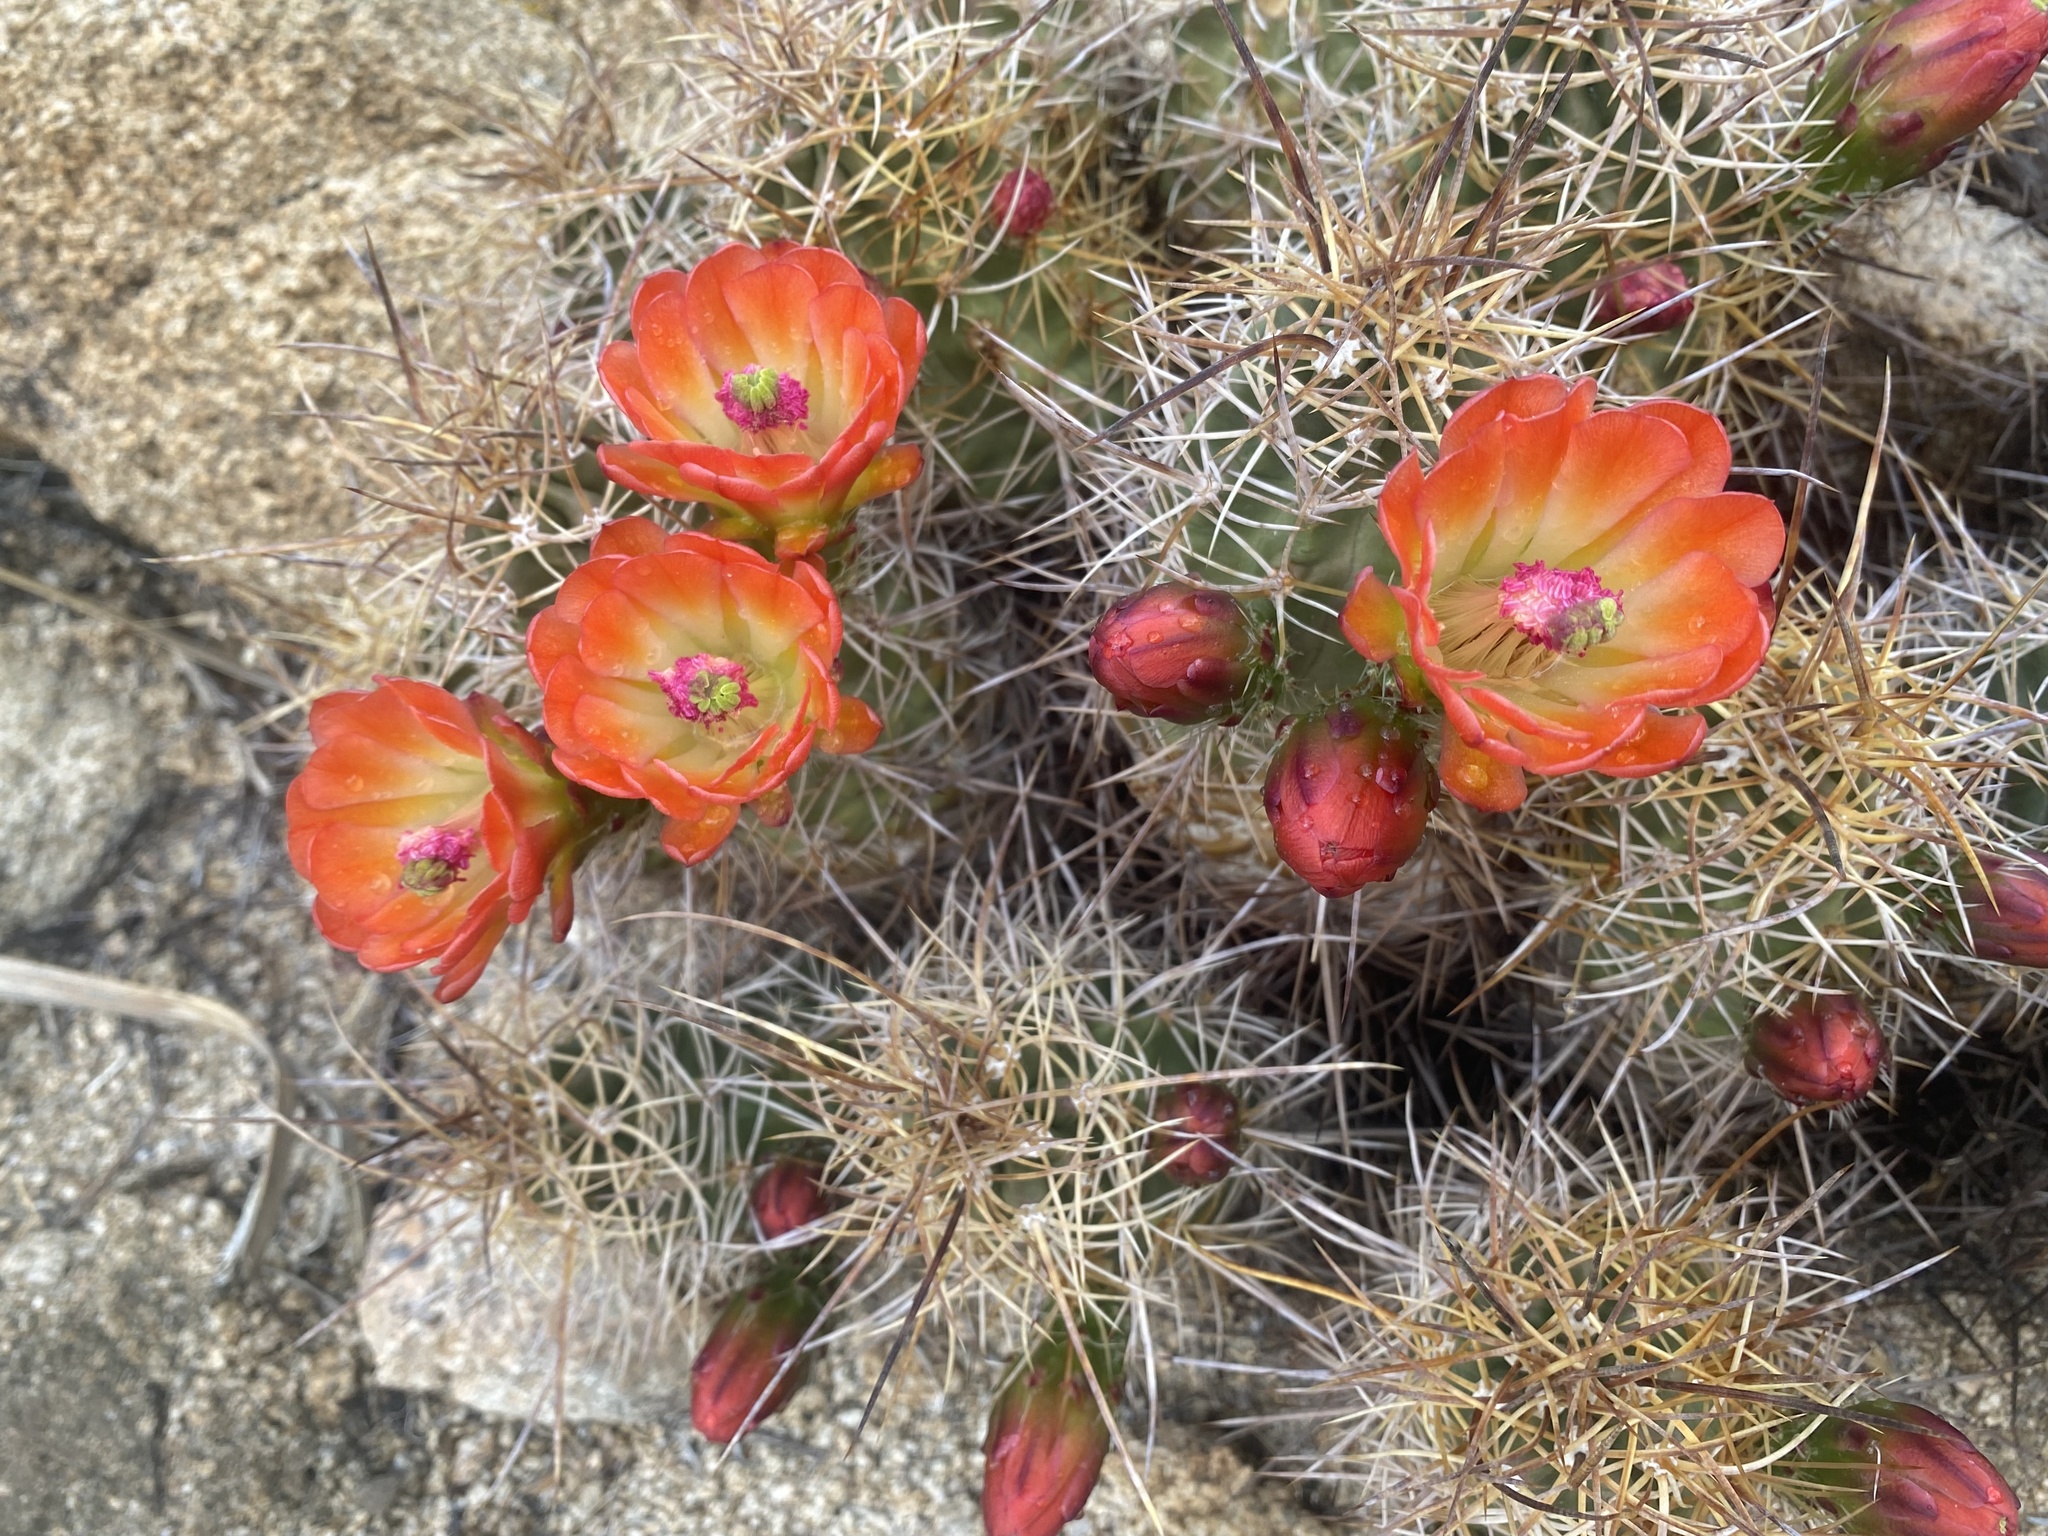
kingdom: Plantae
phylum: Tracheophyta
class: Magnoliopsida
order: Caryophyllales
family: Cactaceae
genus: Echinocereus
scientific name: Echinocereus triglochidiatus
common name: Claretcup hedgehog
